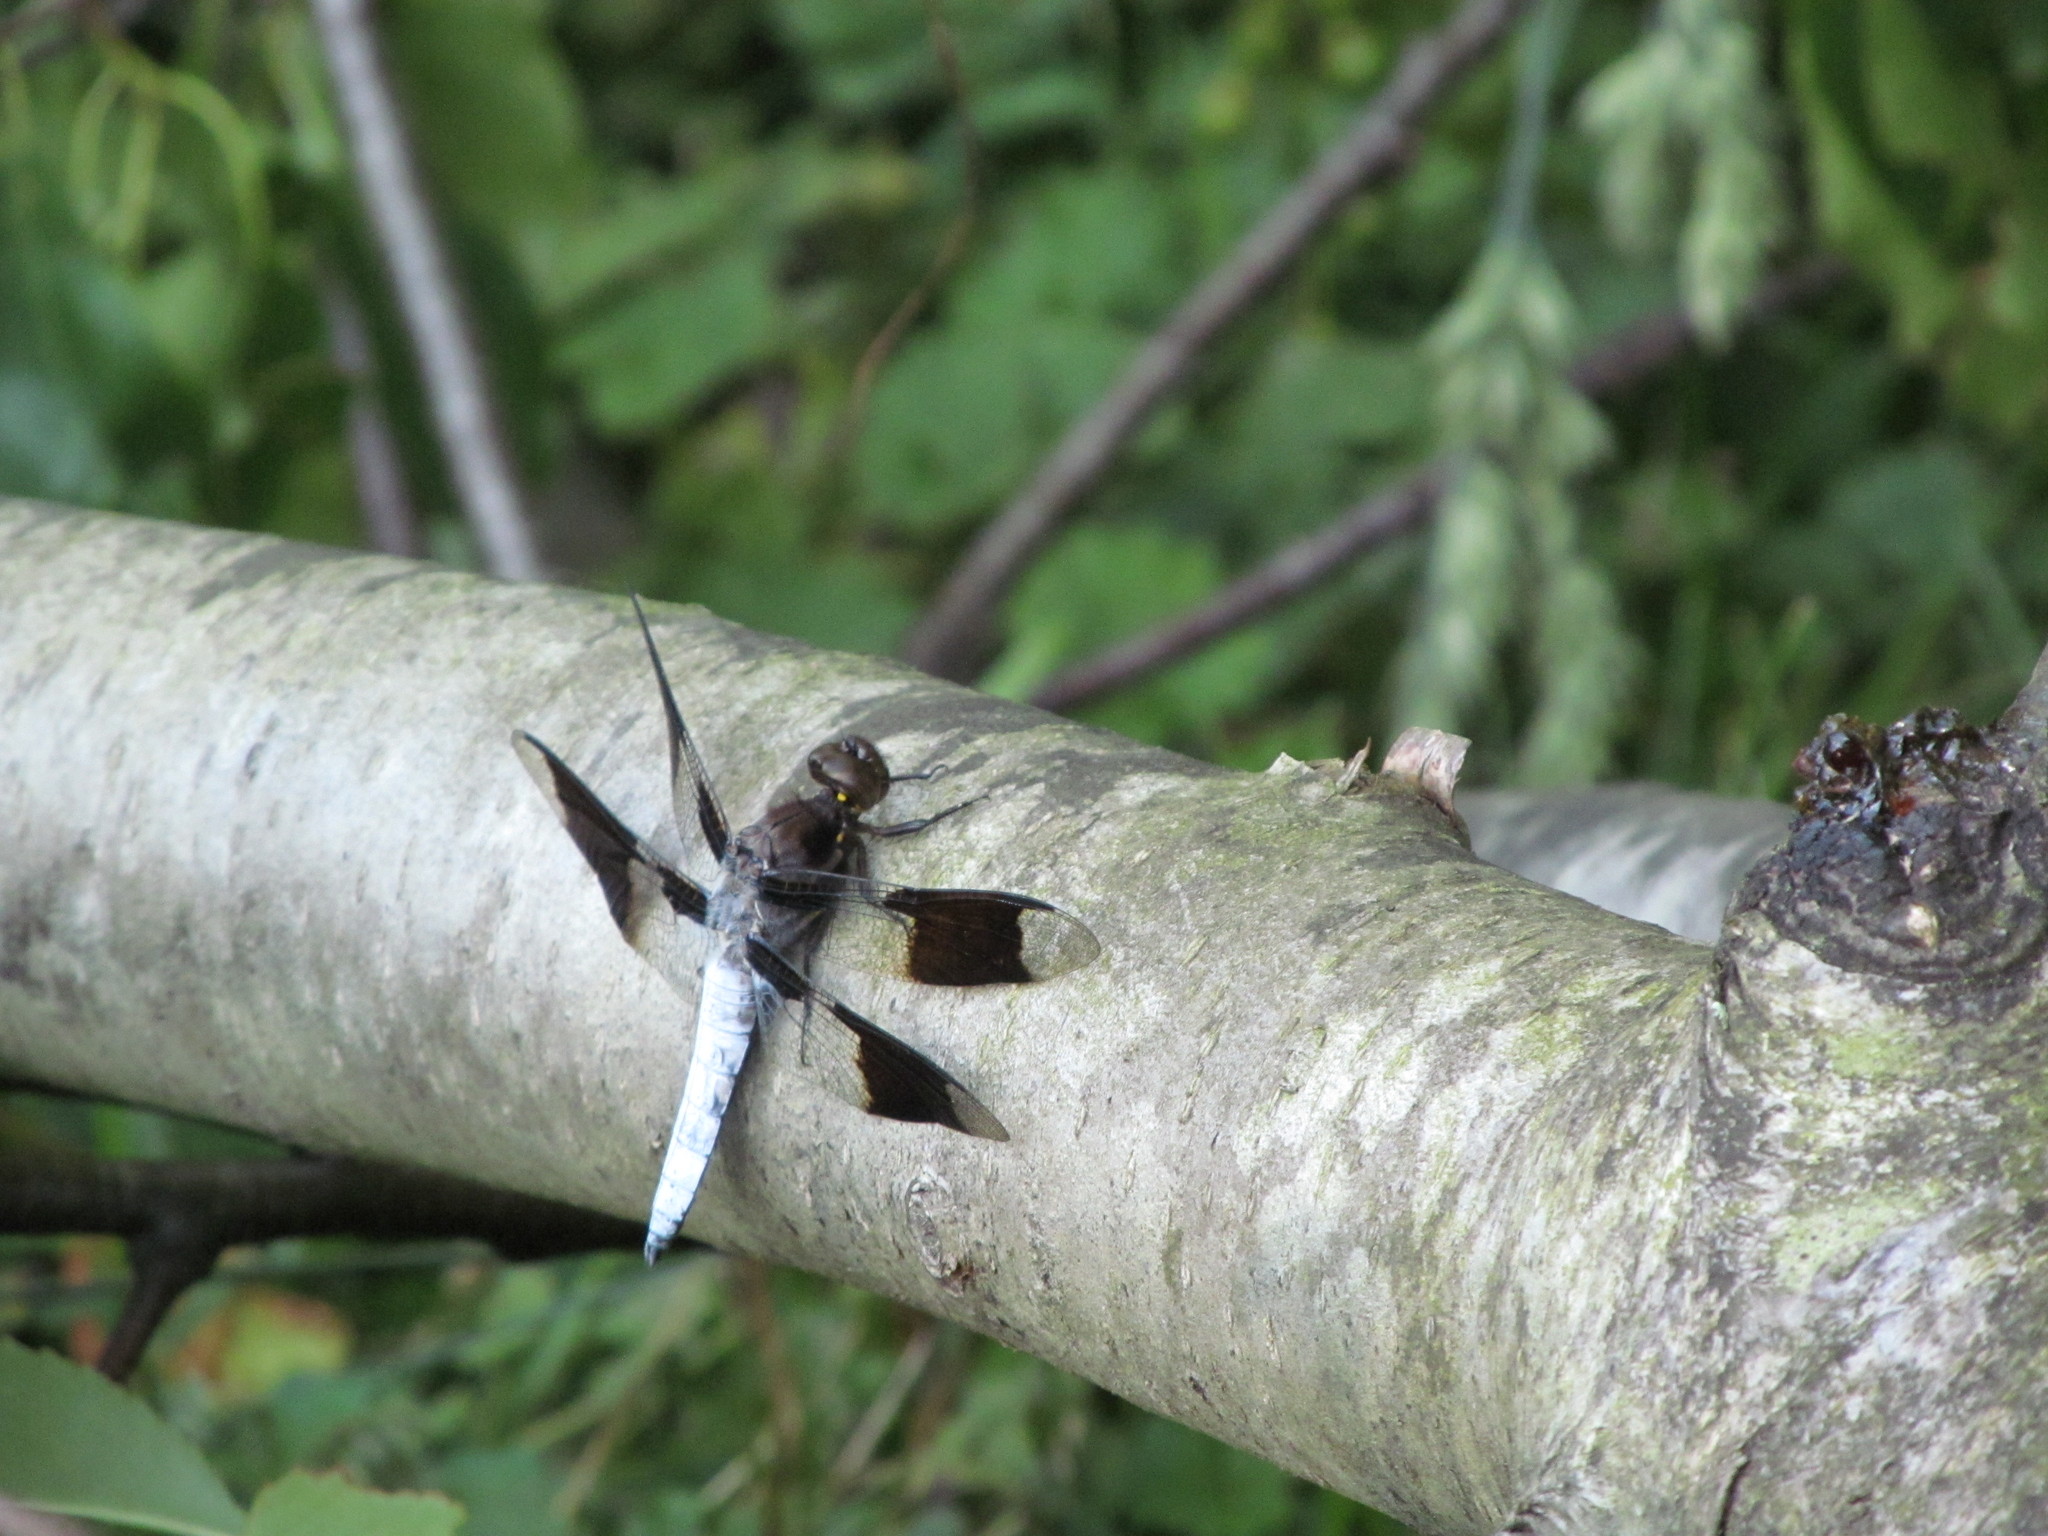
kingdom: Animalia
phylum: Arthropoda
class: Insecta
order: Odonata
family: Libellulidae
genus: Plathemis
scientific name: Plathemis lydia
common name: Common whitetail
